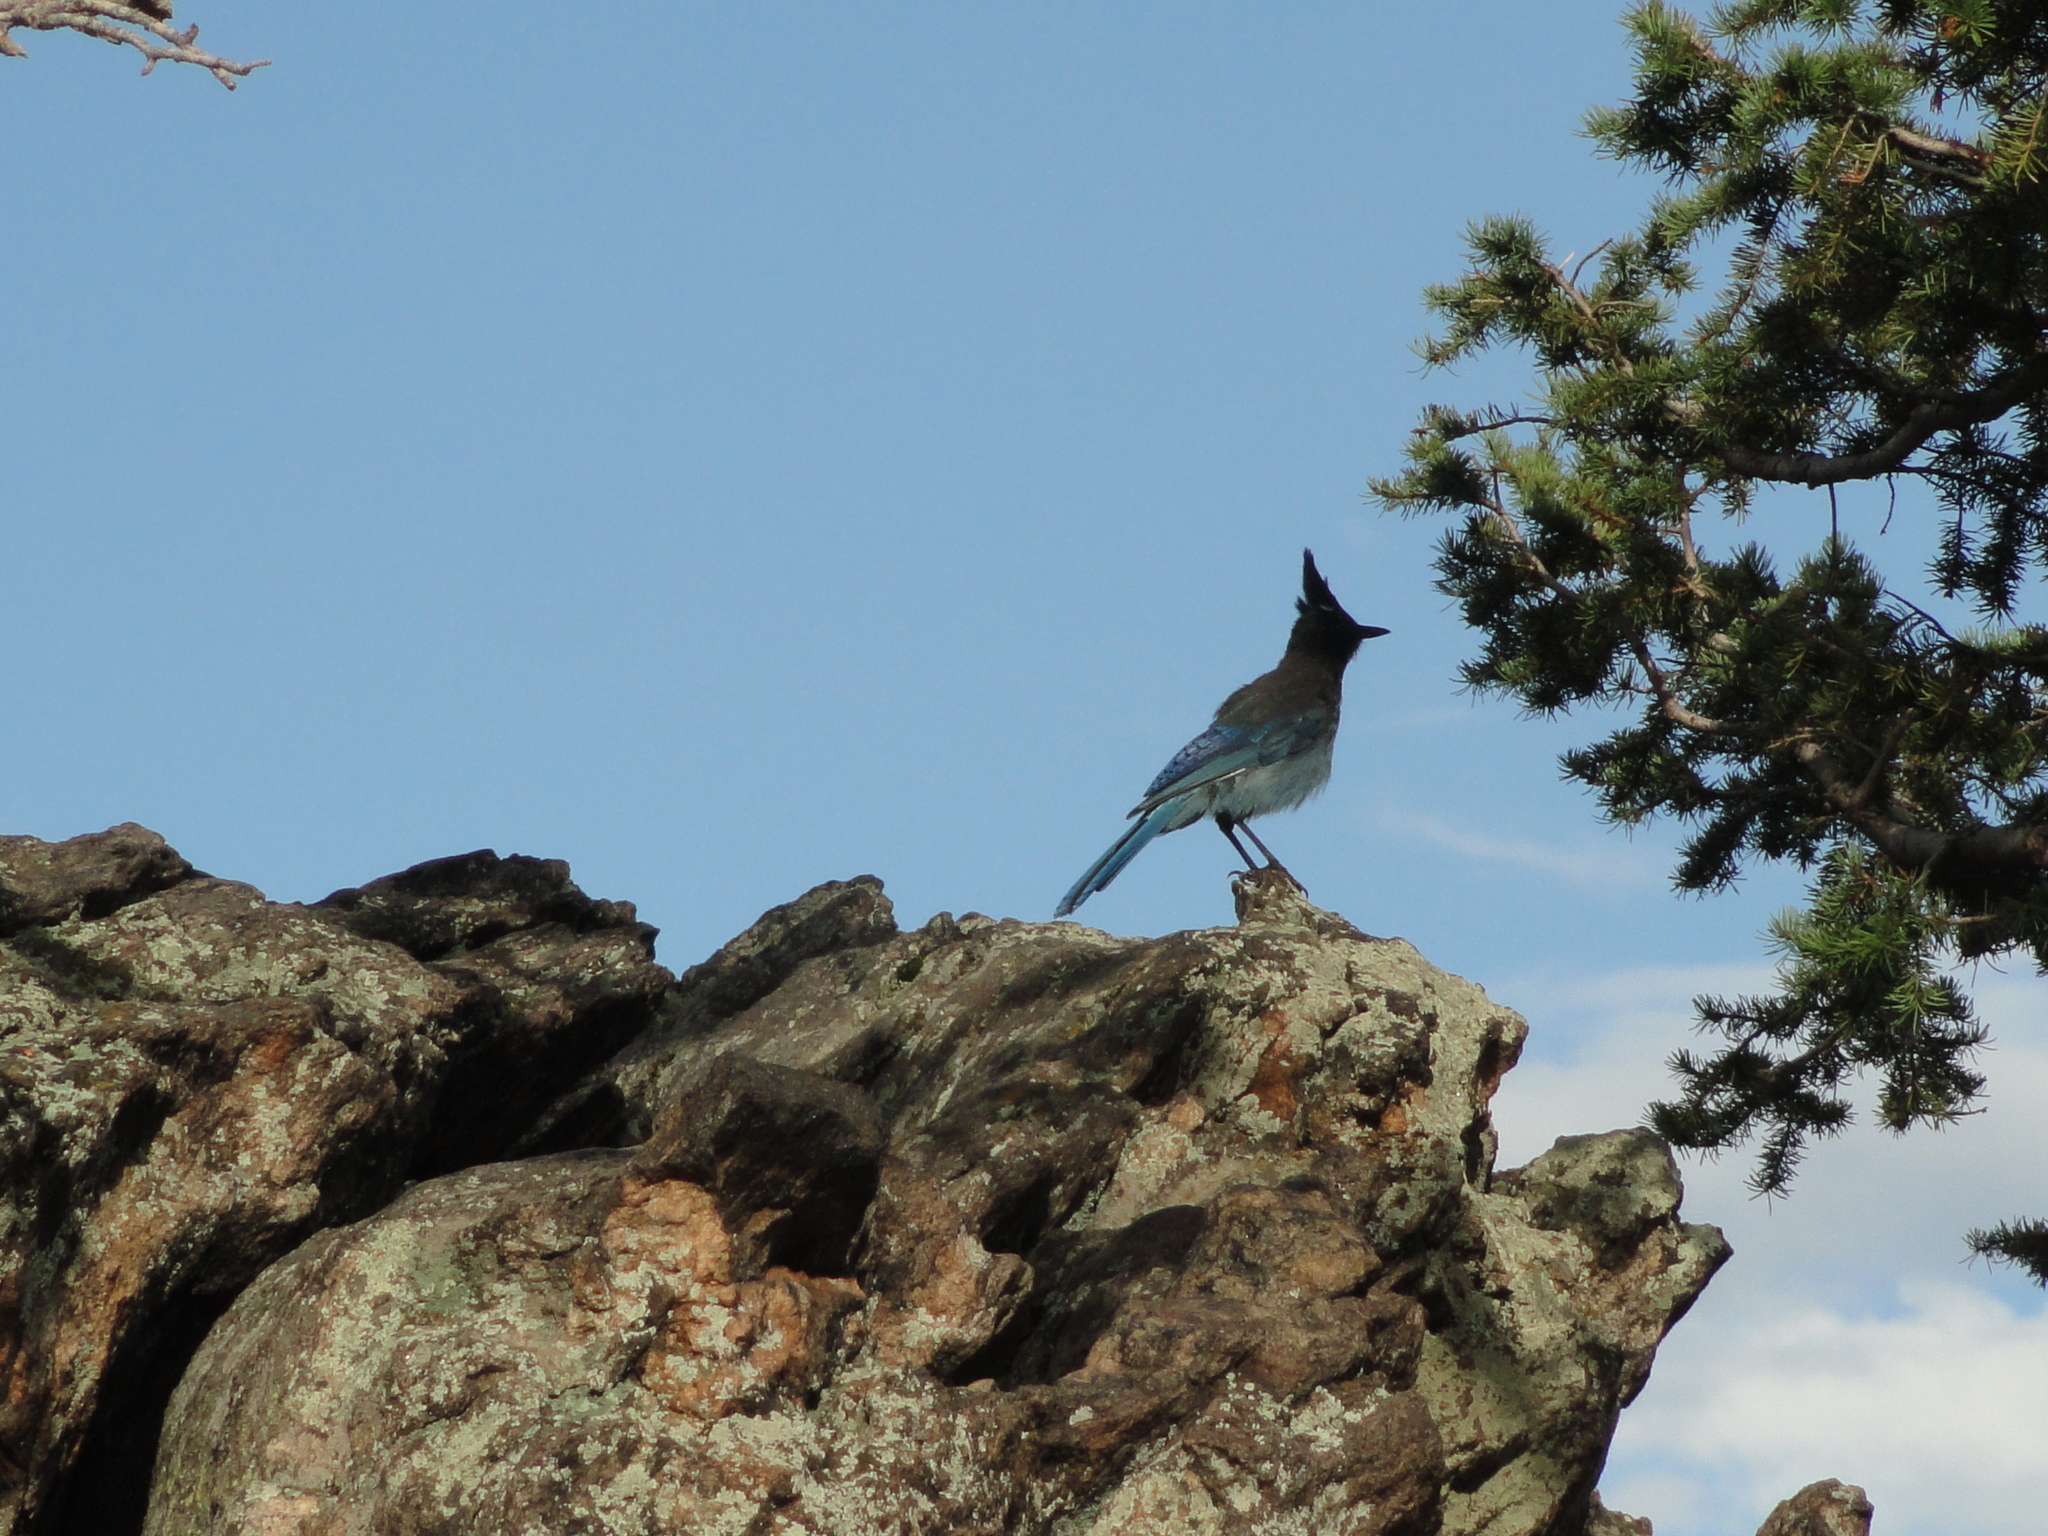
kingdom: Animalia
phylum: Chordata
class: Aves
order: Passeriformes
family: Corvidae
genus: Cyanocitta
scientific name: Cyanocitta stelleri
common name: Steller's jay
